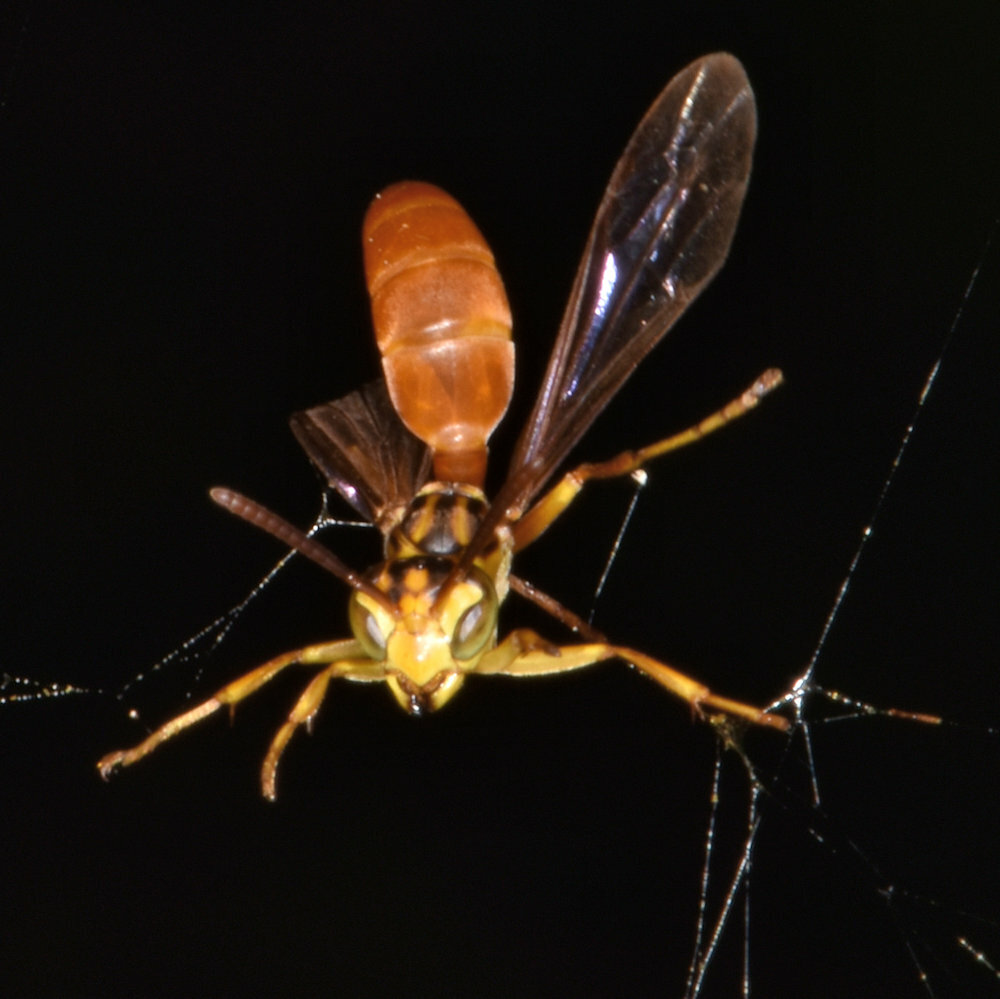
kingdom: Animalia
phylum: Arthropoda
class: Insecta
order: Hymenoptera
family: Vespidae
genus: Agelaia
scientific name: Agelaia centralis
